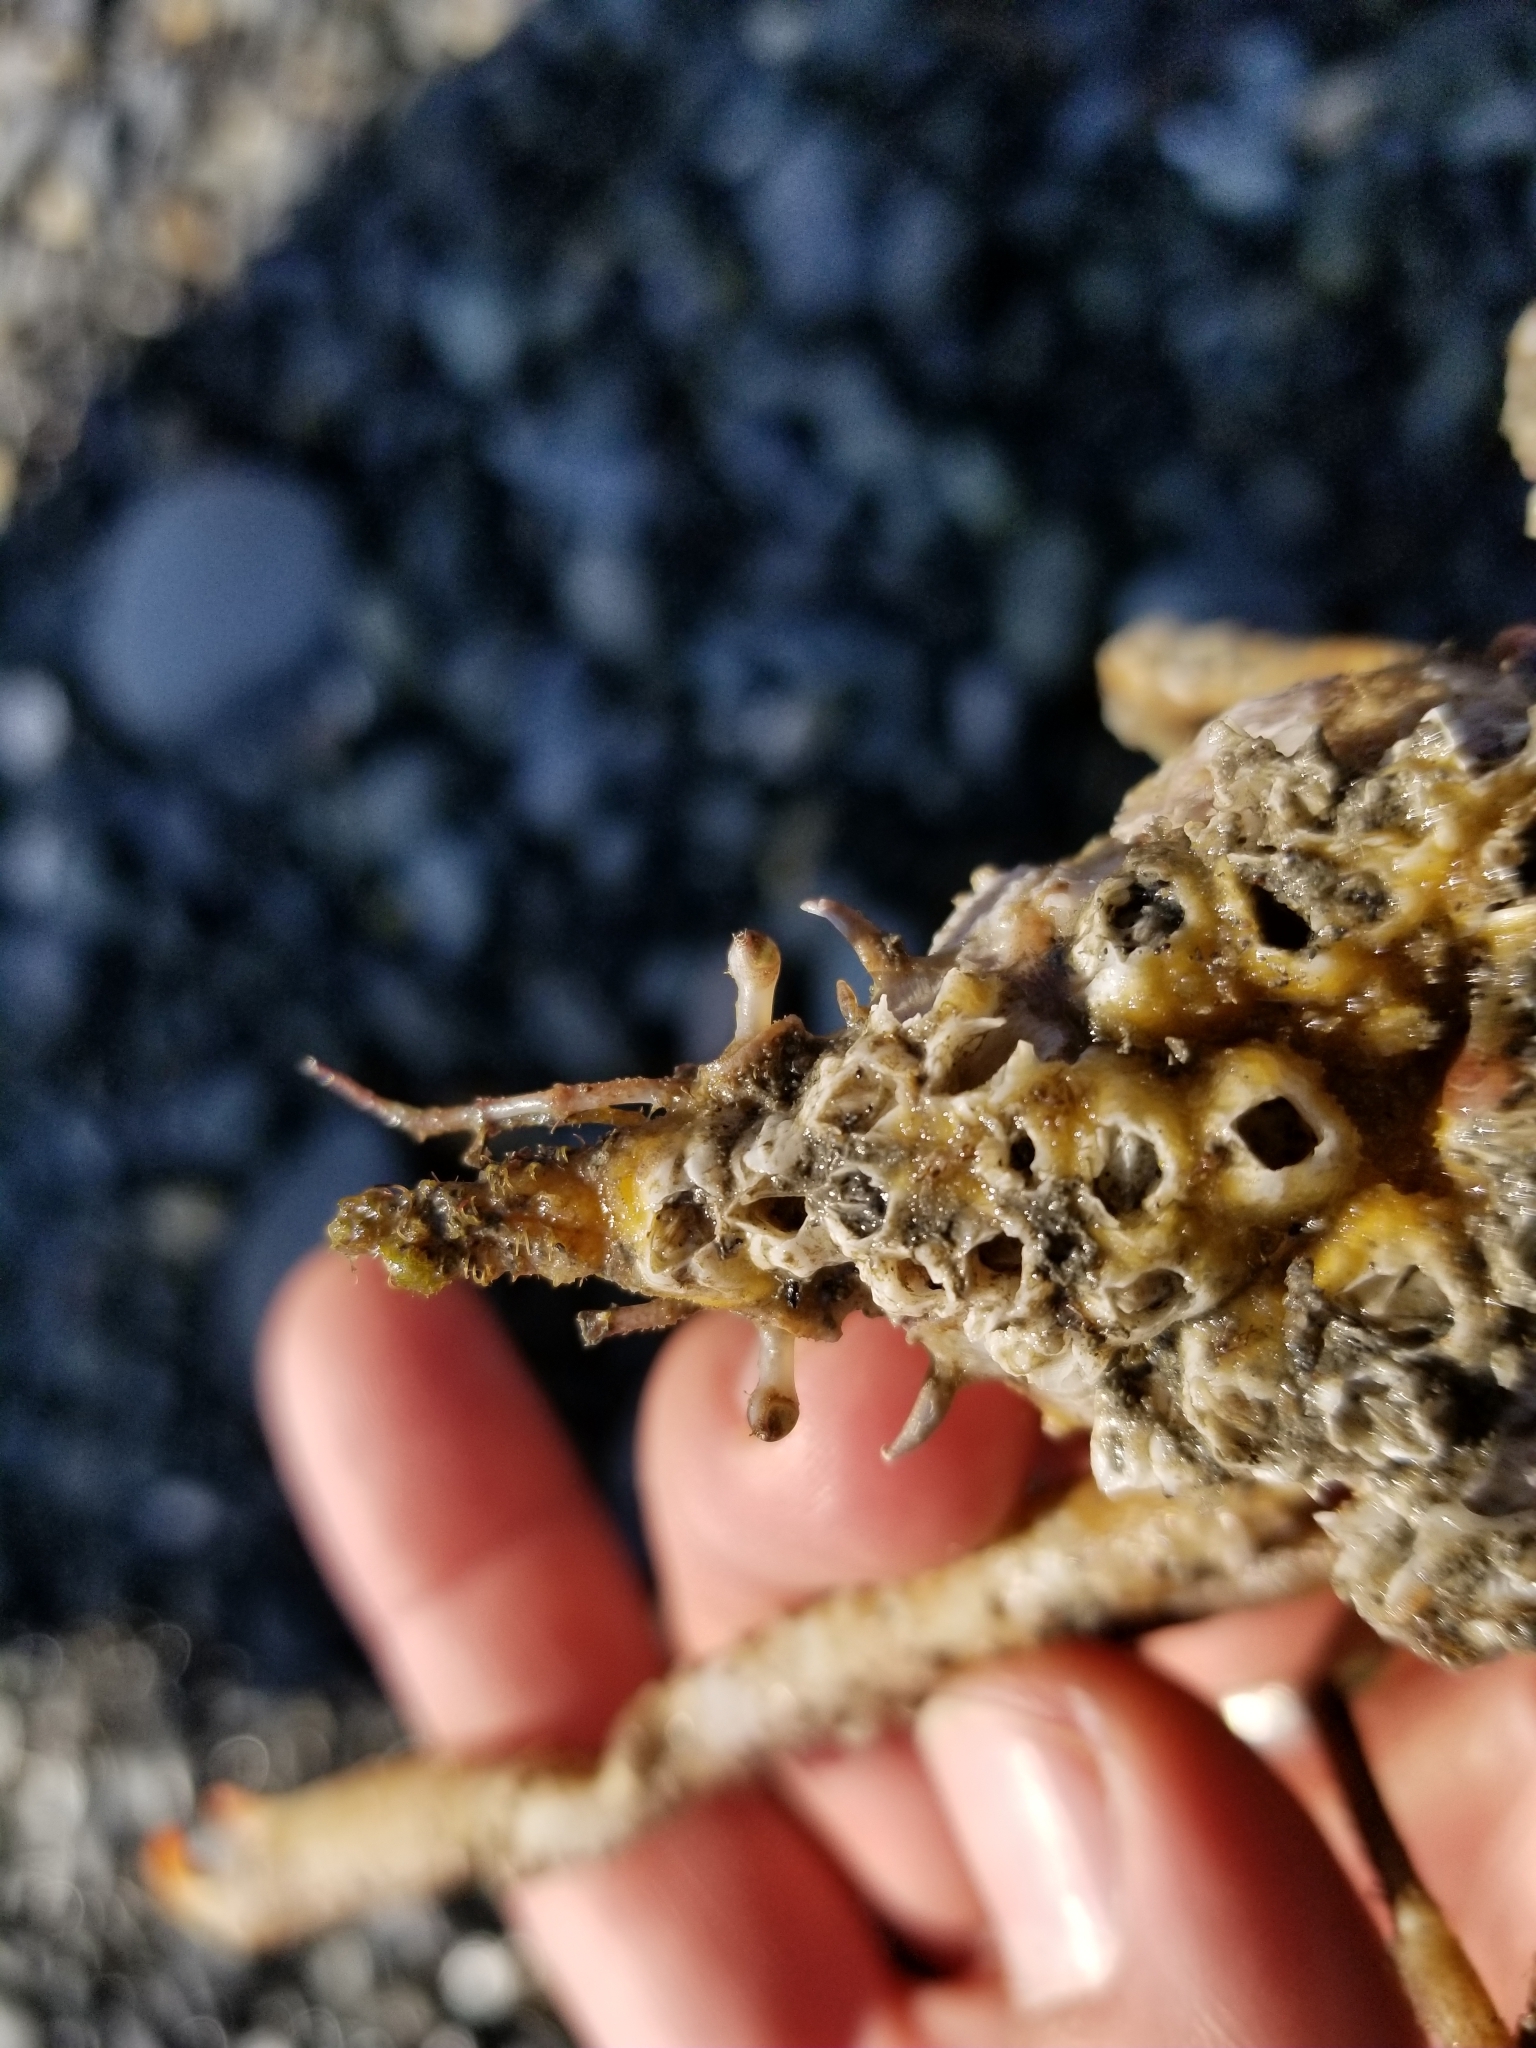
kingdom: Animalia
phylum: Arthropoda
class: Malacostraca
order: Decapoda
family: Oregoniidae
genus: Oregonia
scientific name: Oregonia gracilis
